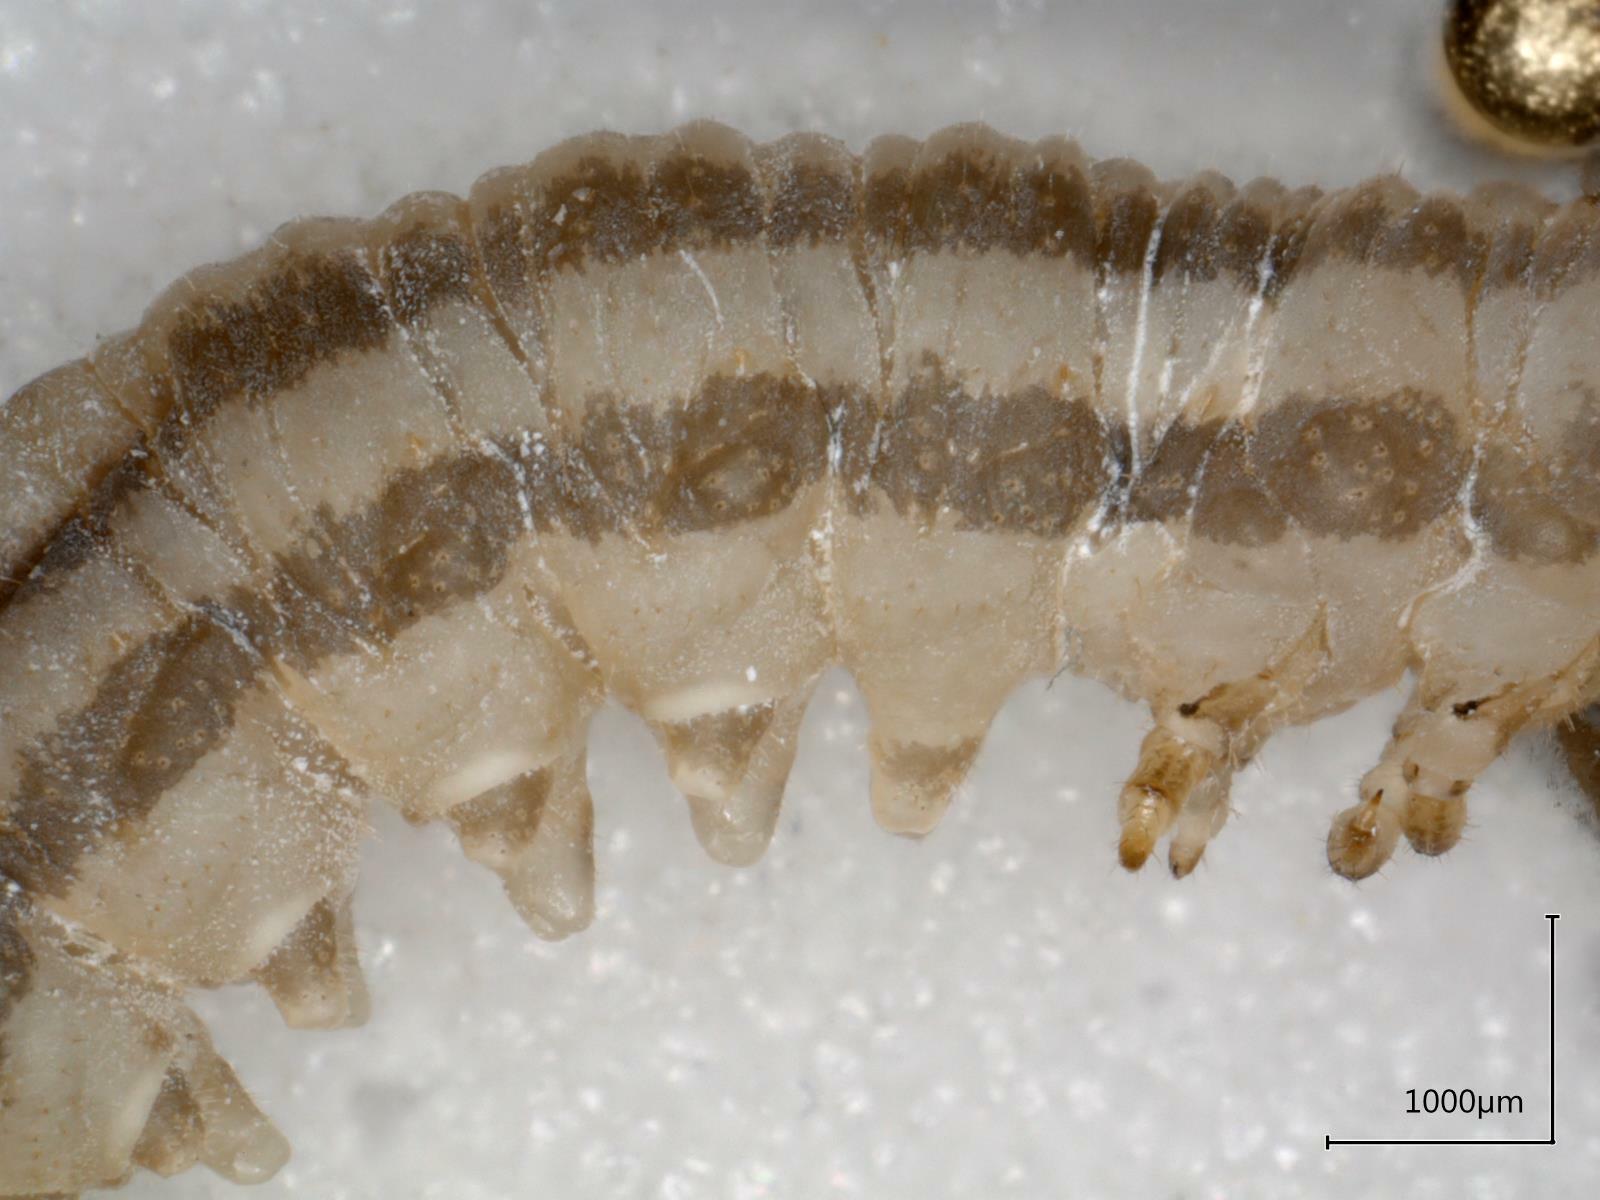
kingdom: Animalia
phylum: Arthropoda
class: Insecta
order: Hymenoptera
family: Tenthredinidae
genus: Pachynematus
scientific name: Pachynematus scutellatus
